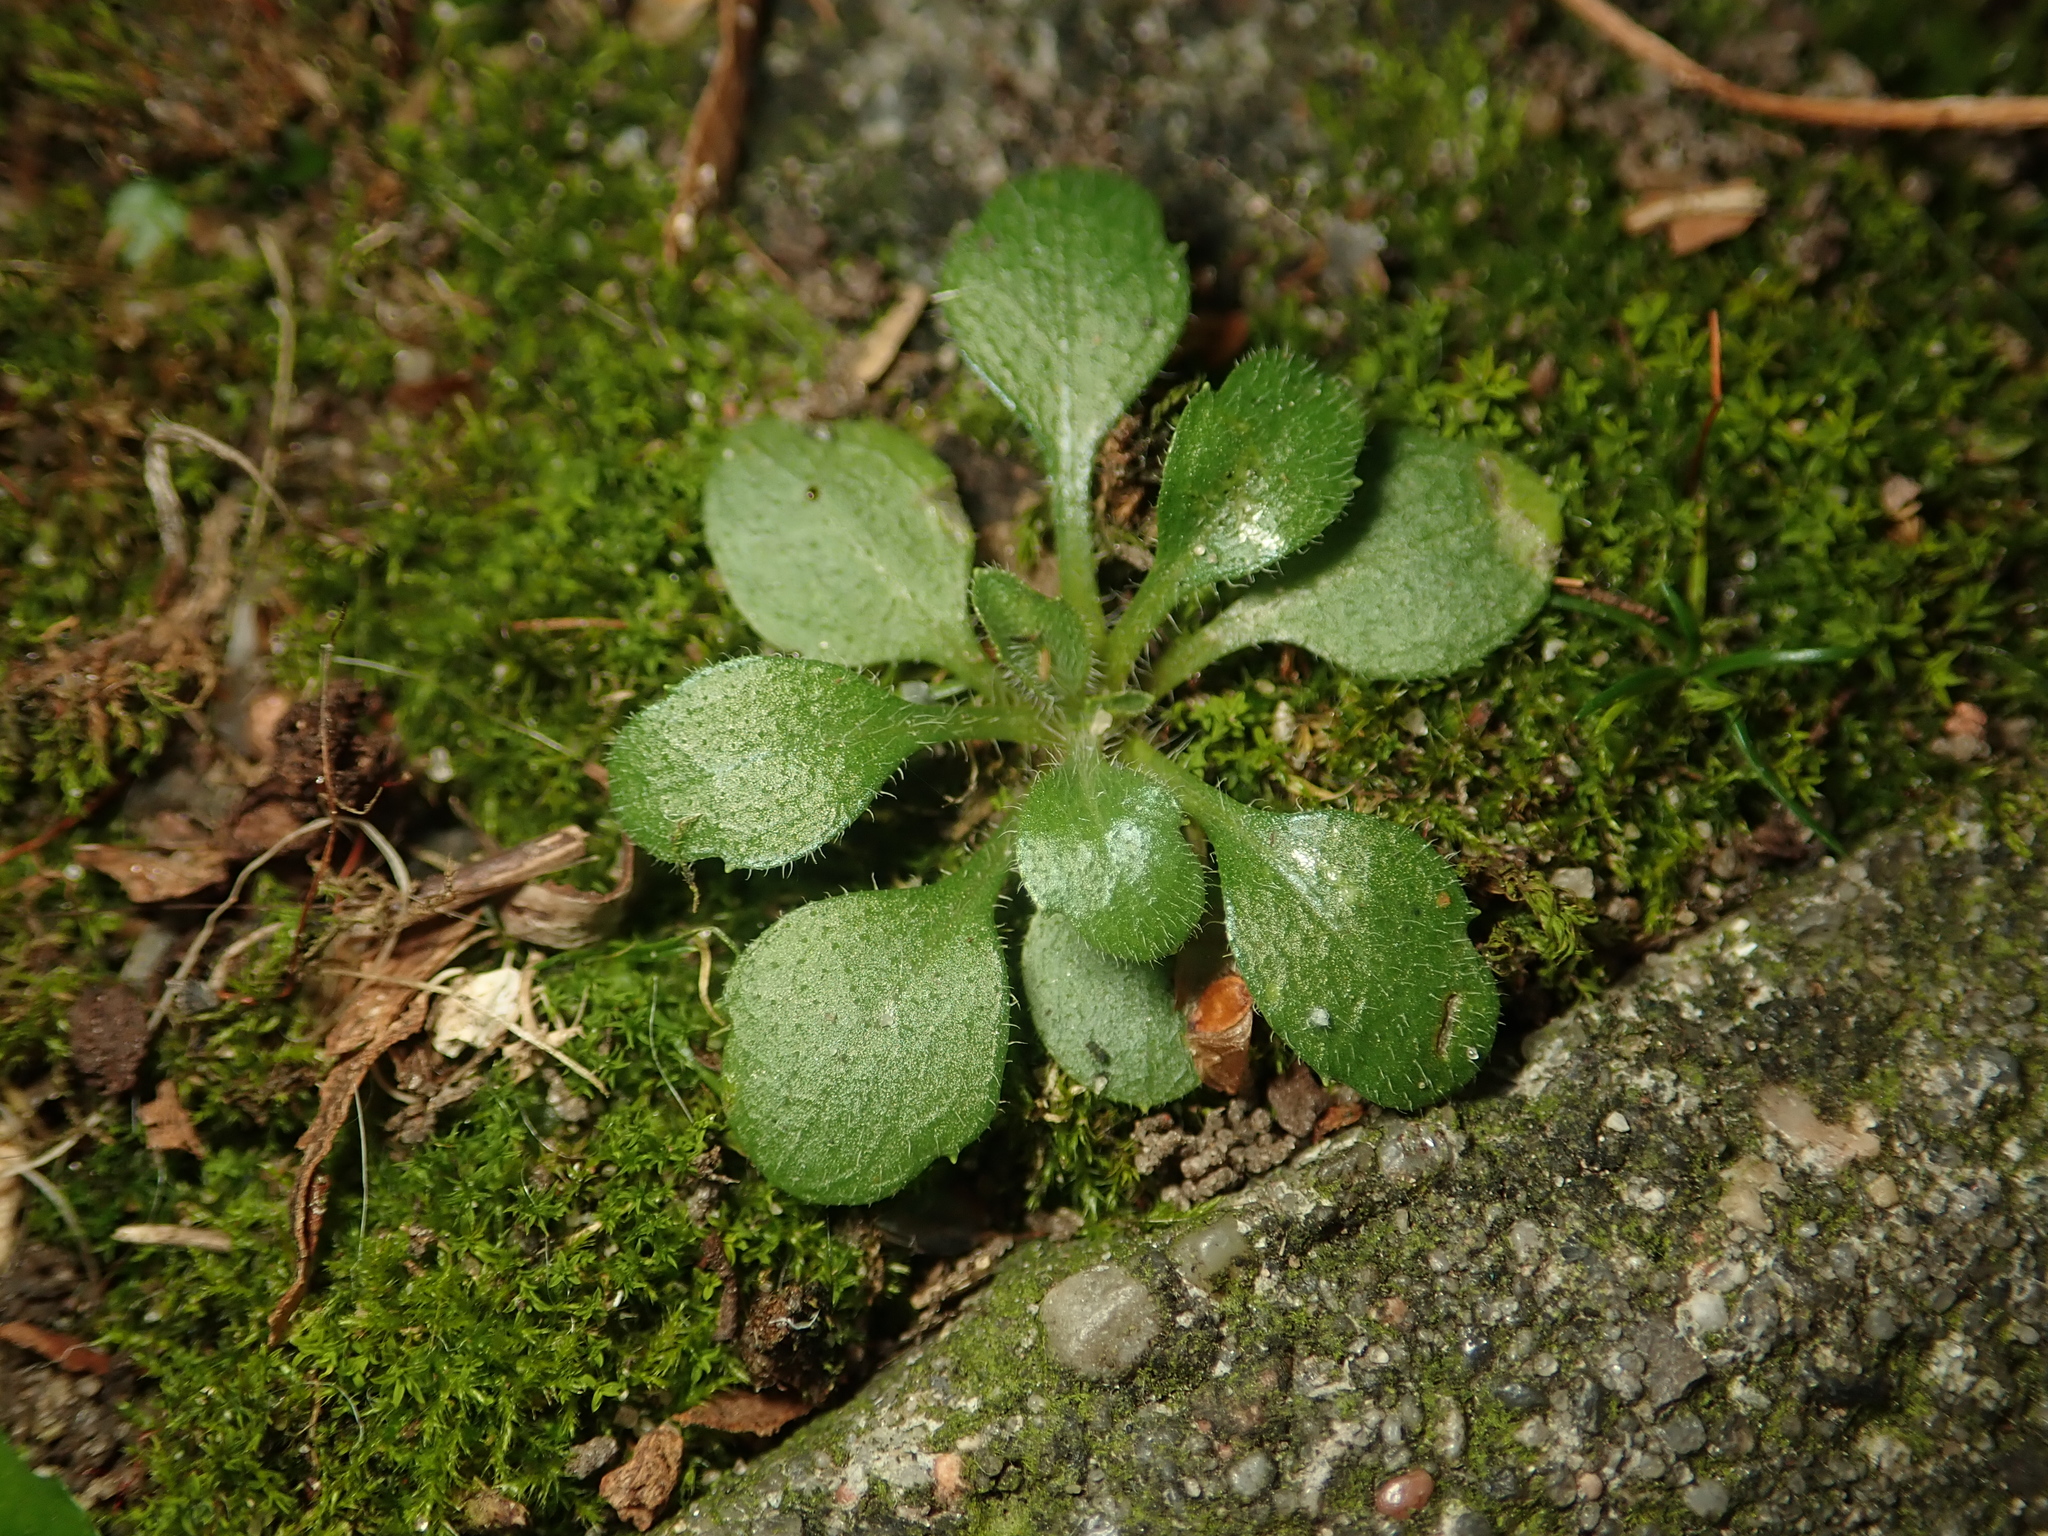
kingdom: Plantae
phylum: Tracheophyta
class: Magnoliopsida
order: Asterales
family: Asteraceae
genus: Erigeron
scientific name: Erigeron canadensis
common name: Canadian fleabane
